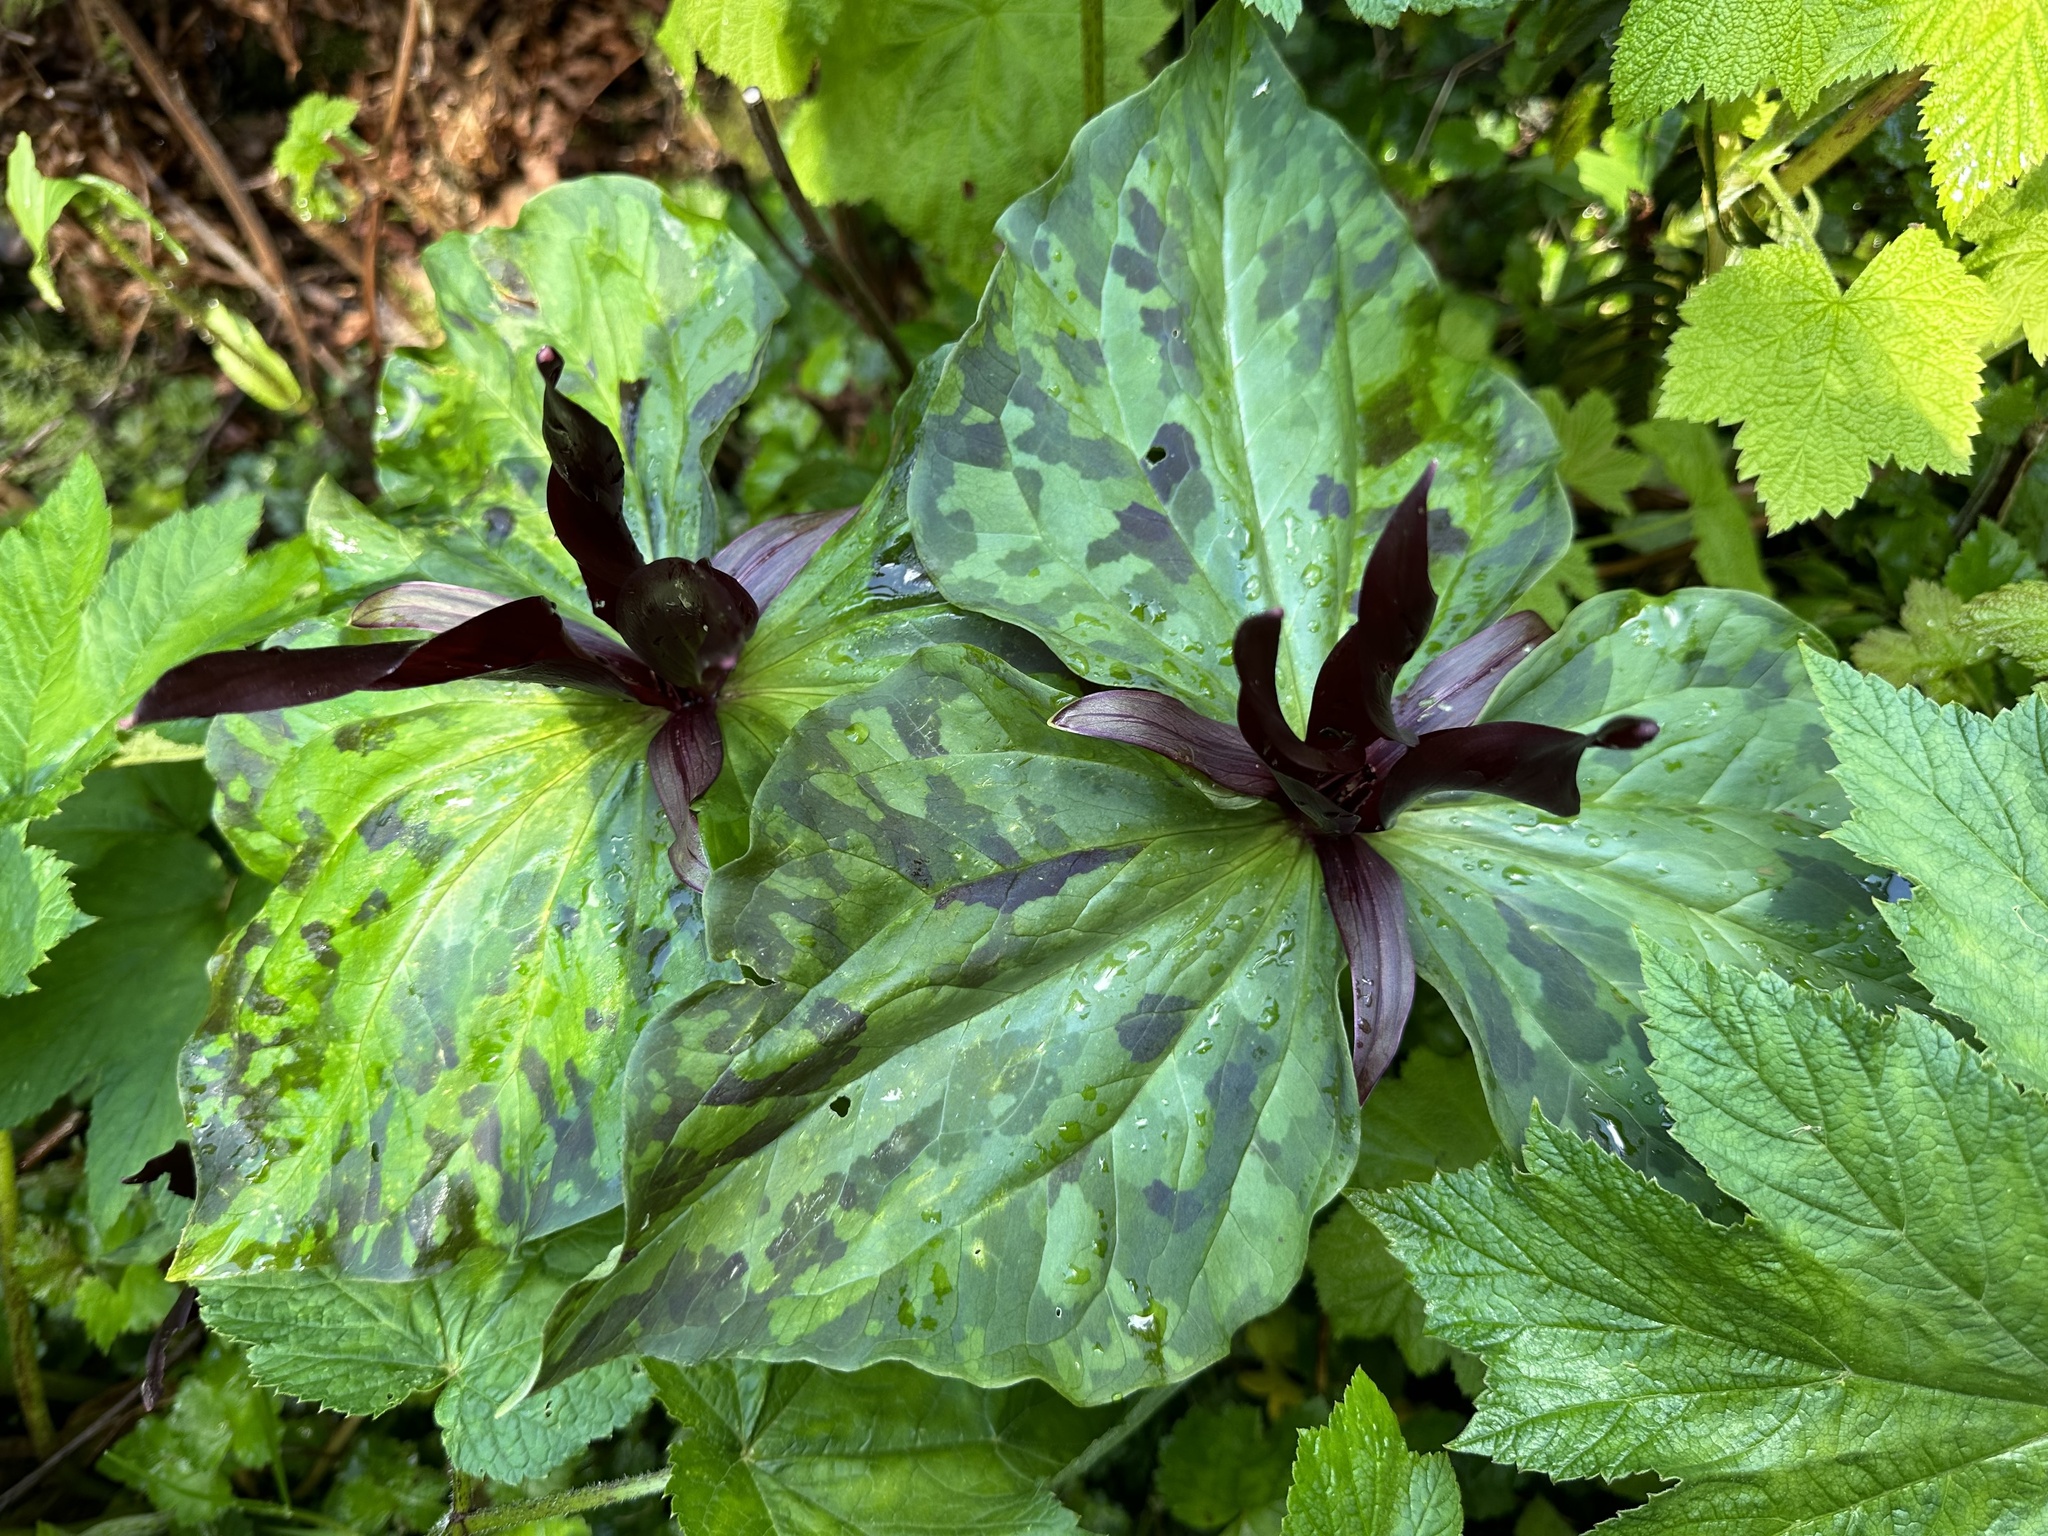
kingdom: Plantae
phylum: Tracheophyta
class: Liliopsida
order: Liliales
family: Melanthiaceae
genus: Trillium
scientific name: Trillium kurabayashii
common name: Giant purple trillium
